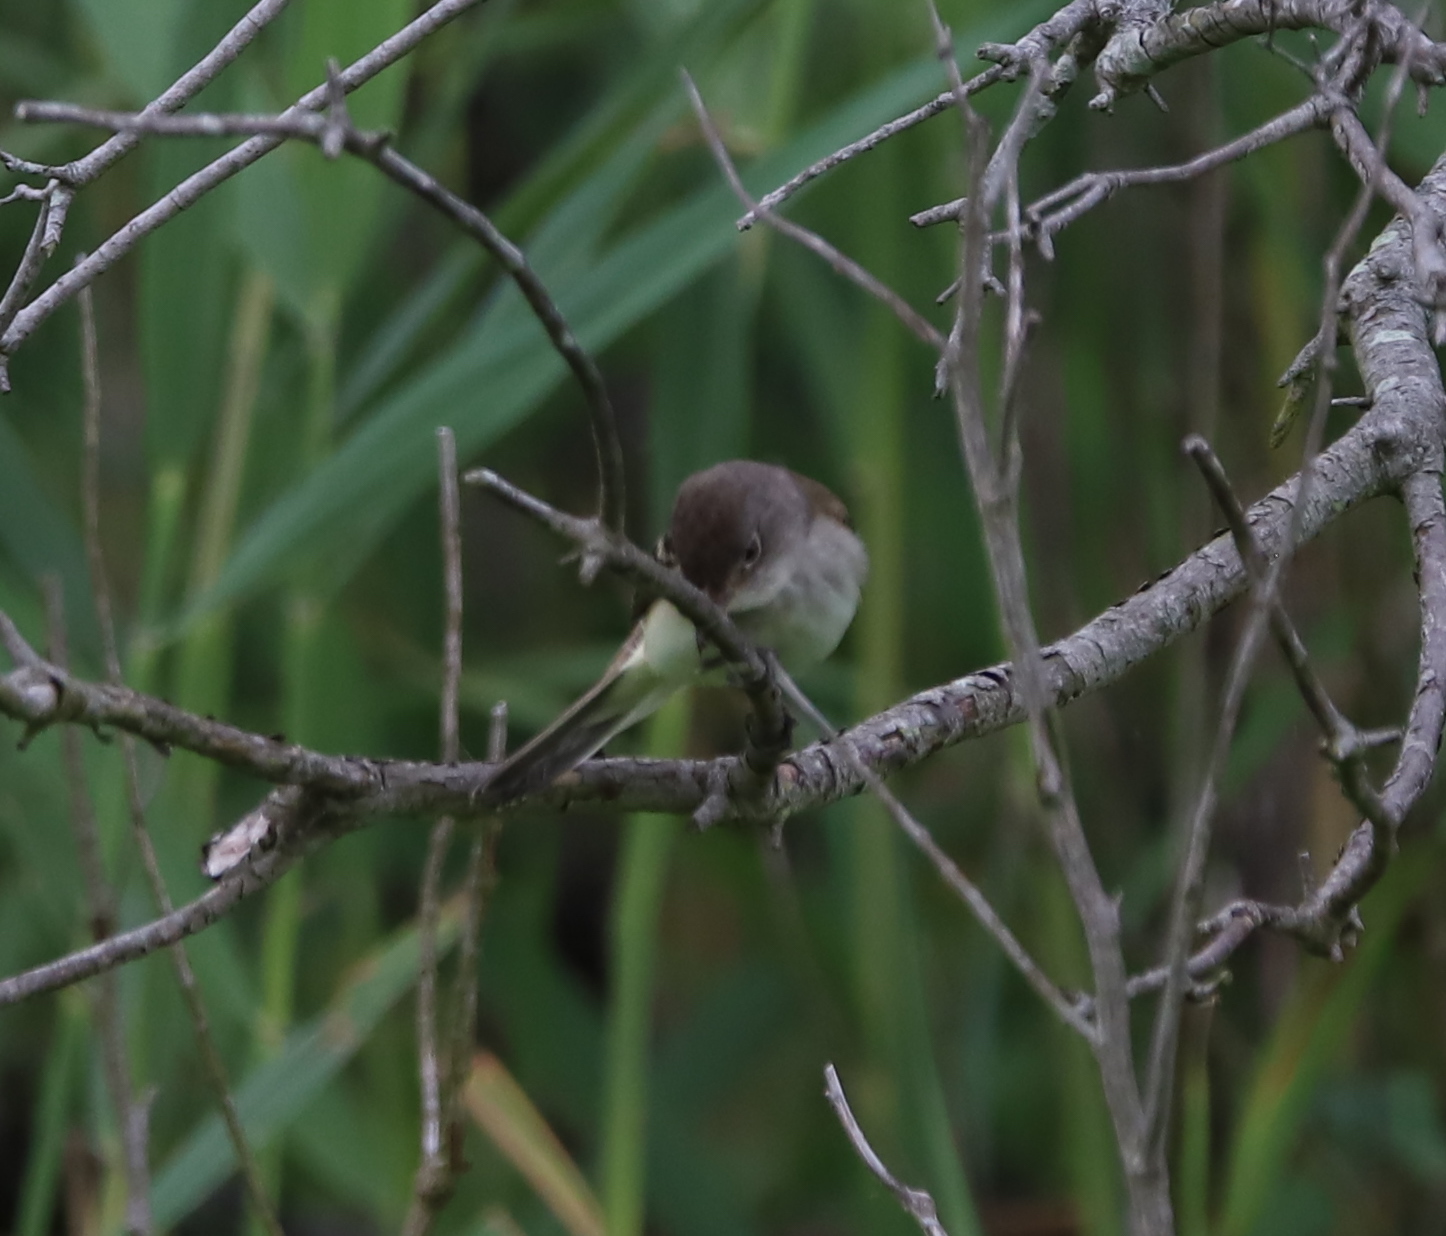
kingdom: Animalia
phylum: Chordata
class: Aves
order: Passeriformes
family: Tyrannidae
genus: Empidonax
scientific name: Empidonax
